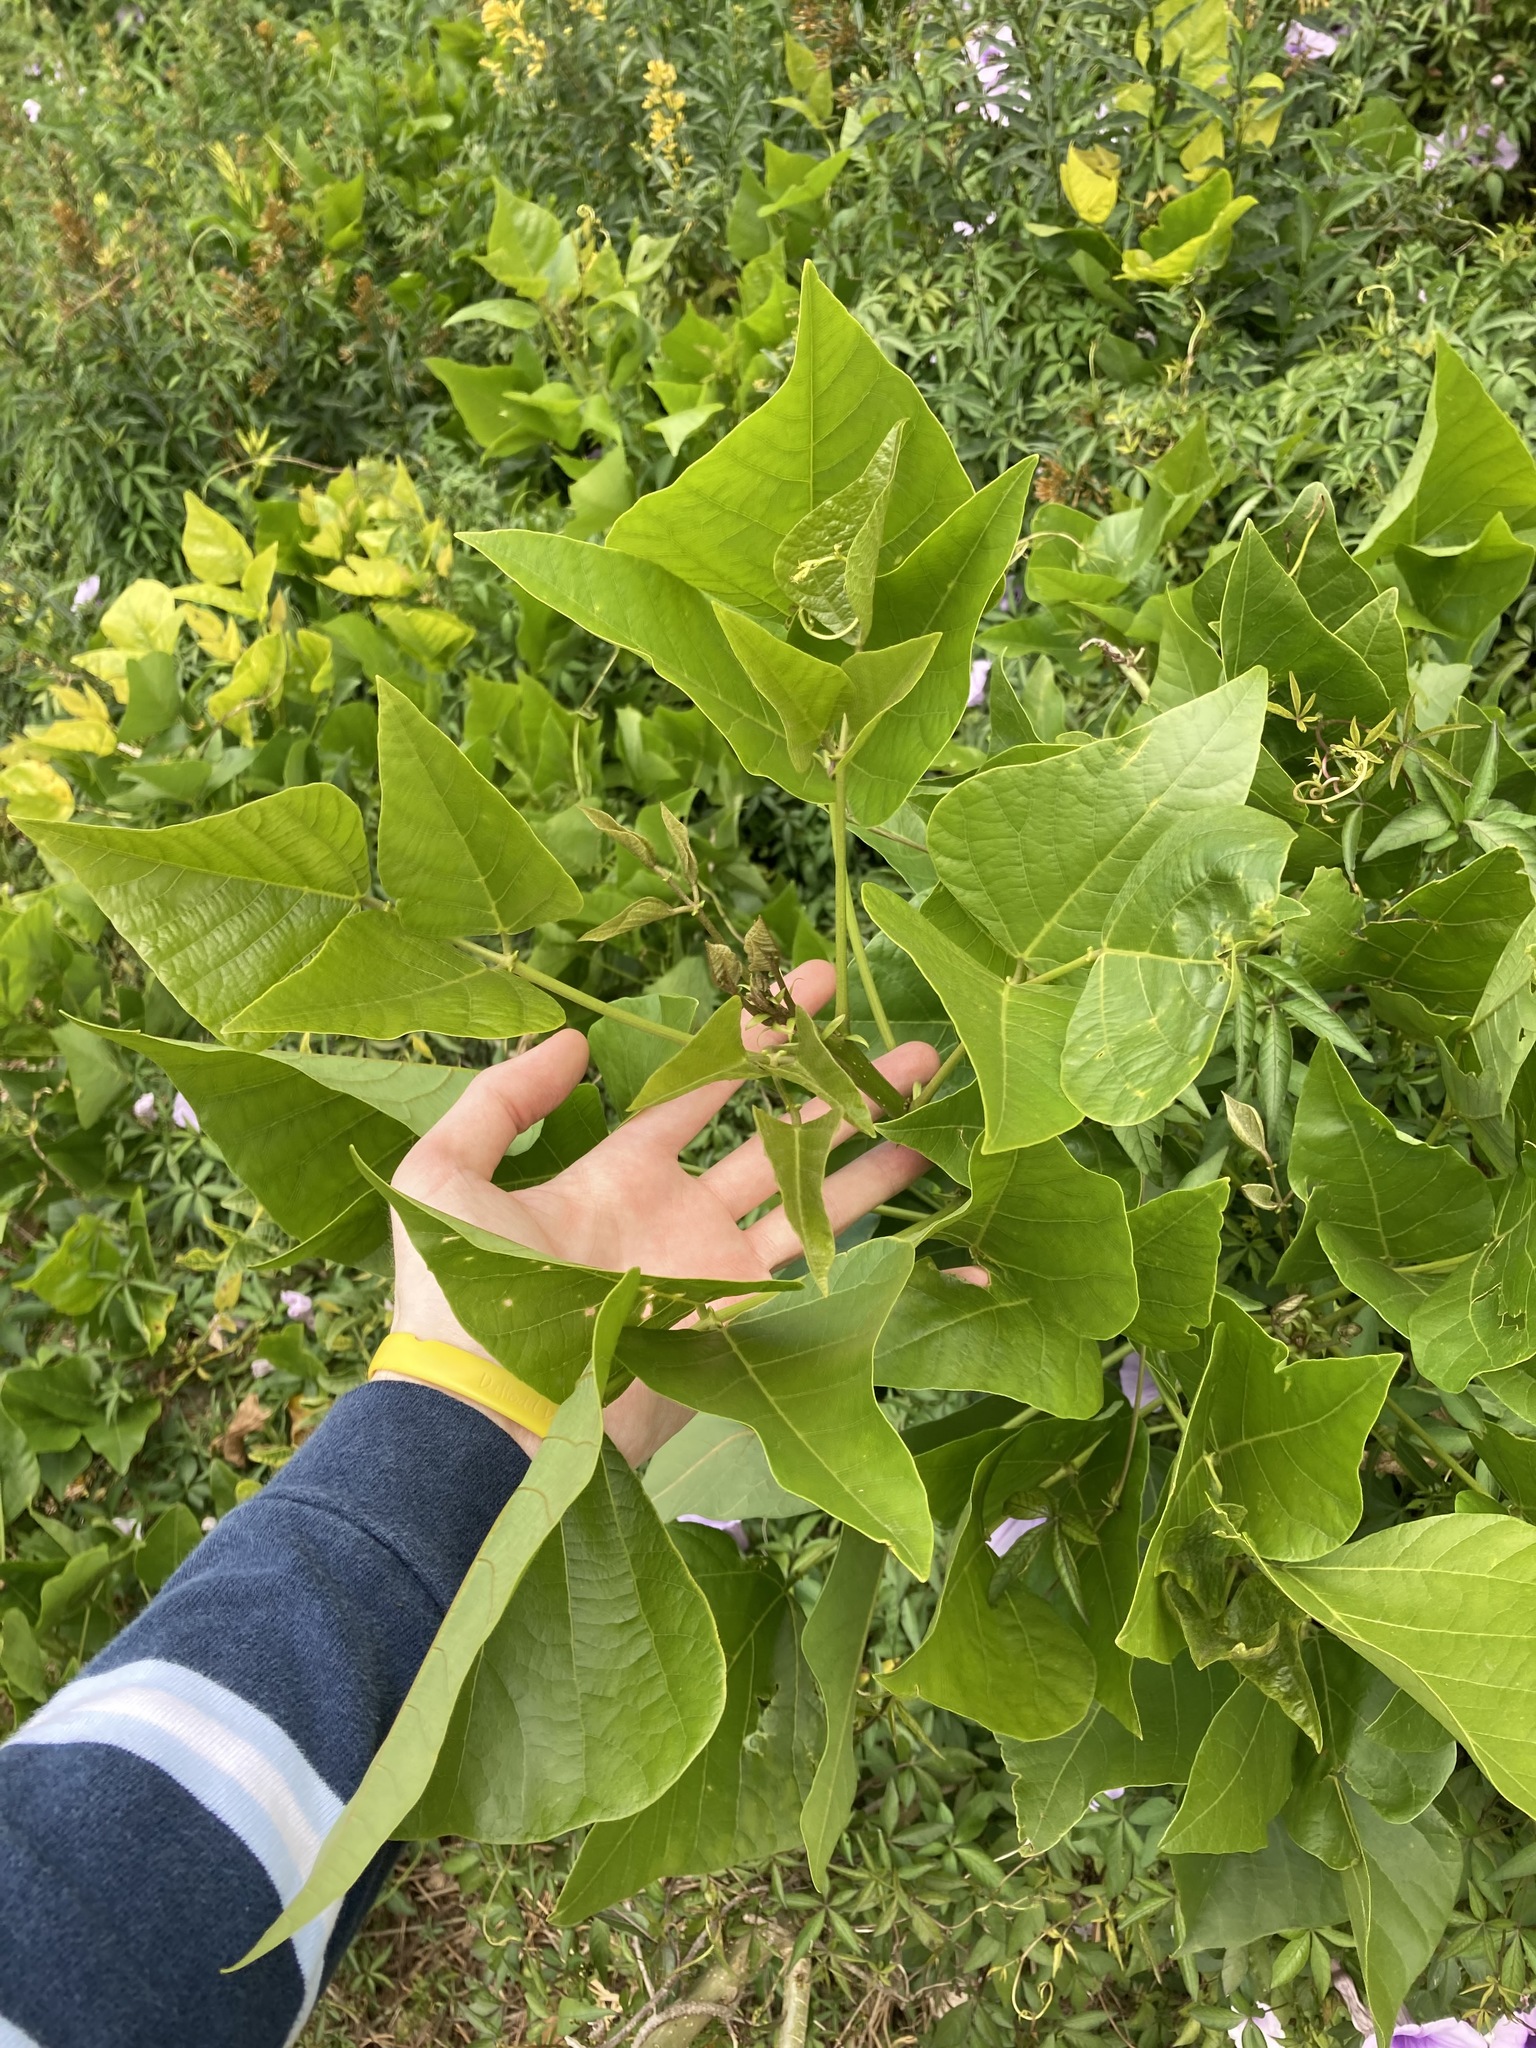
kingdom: Plantae
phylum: Tracheophyta
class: Magnoliopsida
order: Fabales
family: Fabaceae
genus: Erythrina
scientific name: Erythrina sykesii
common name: Coraltree
